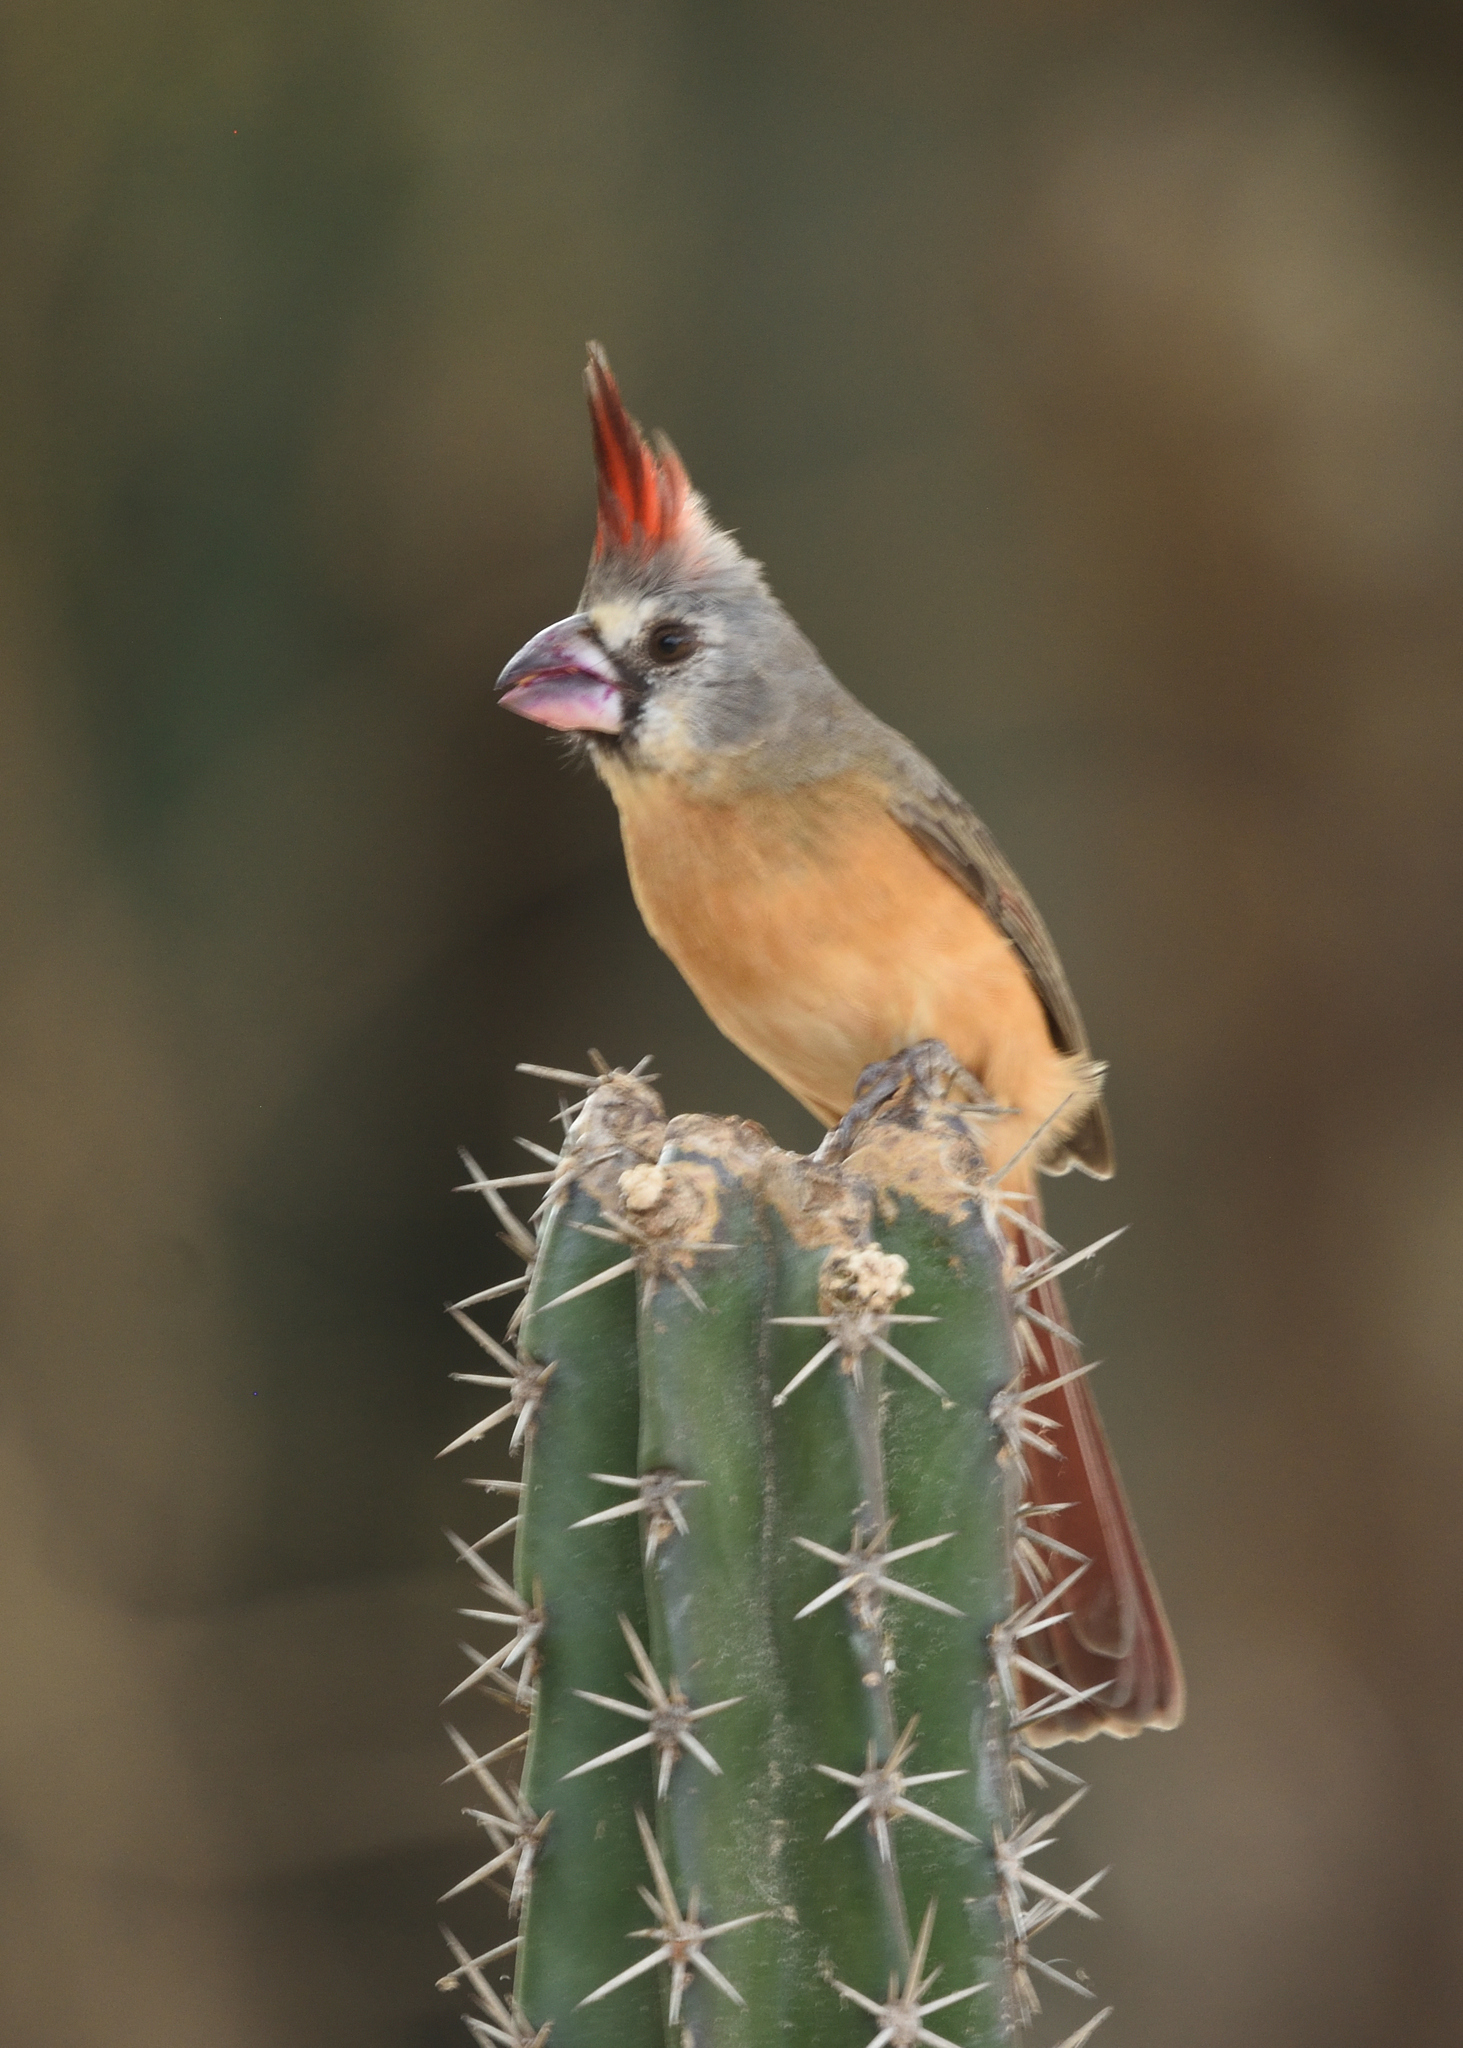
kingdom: Animalia
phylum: Chordata
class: Aves
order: Passeriformes
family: Cardinalidae
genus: Cardinalis
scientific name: Cardinalis phoeniceus
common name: Vermilion cardinal
